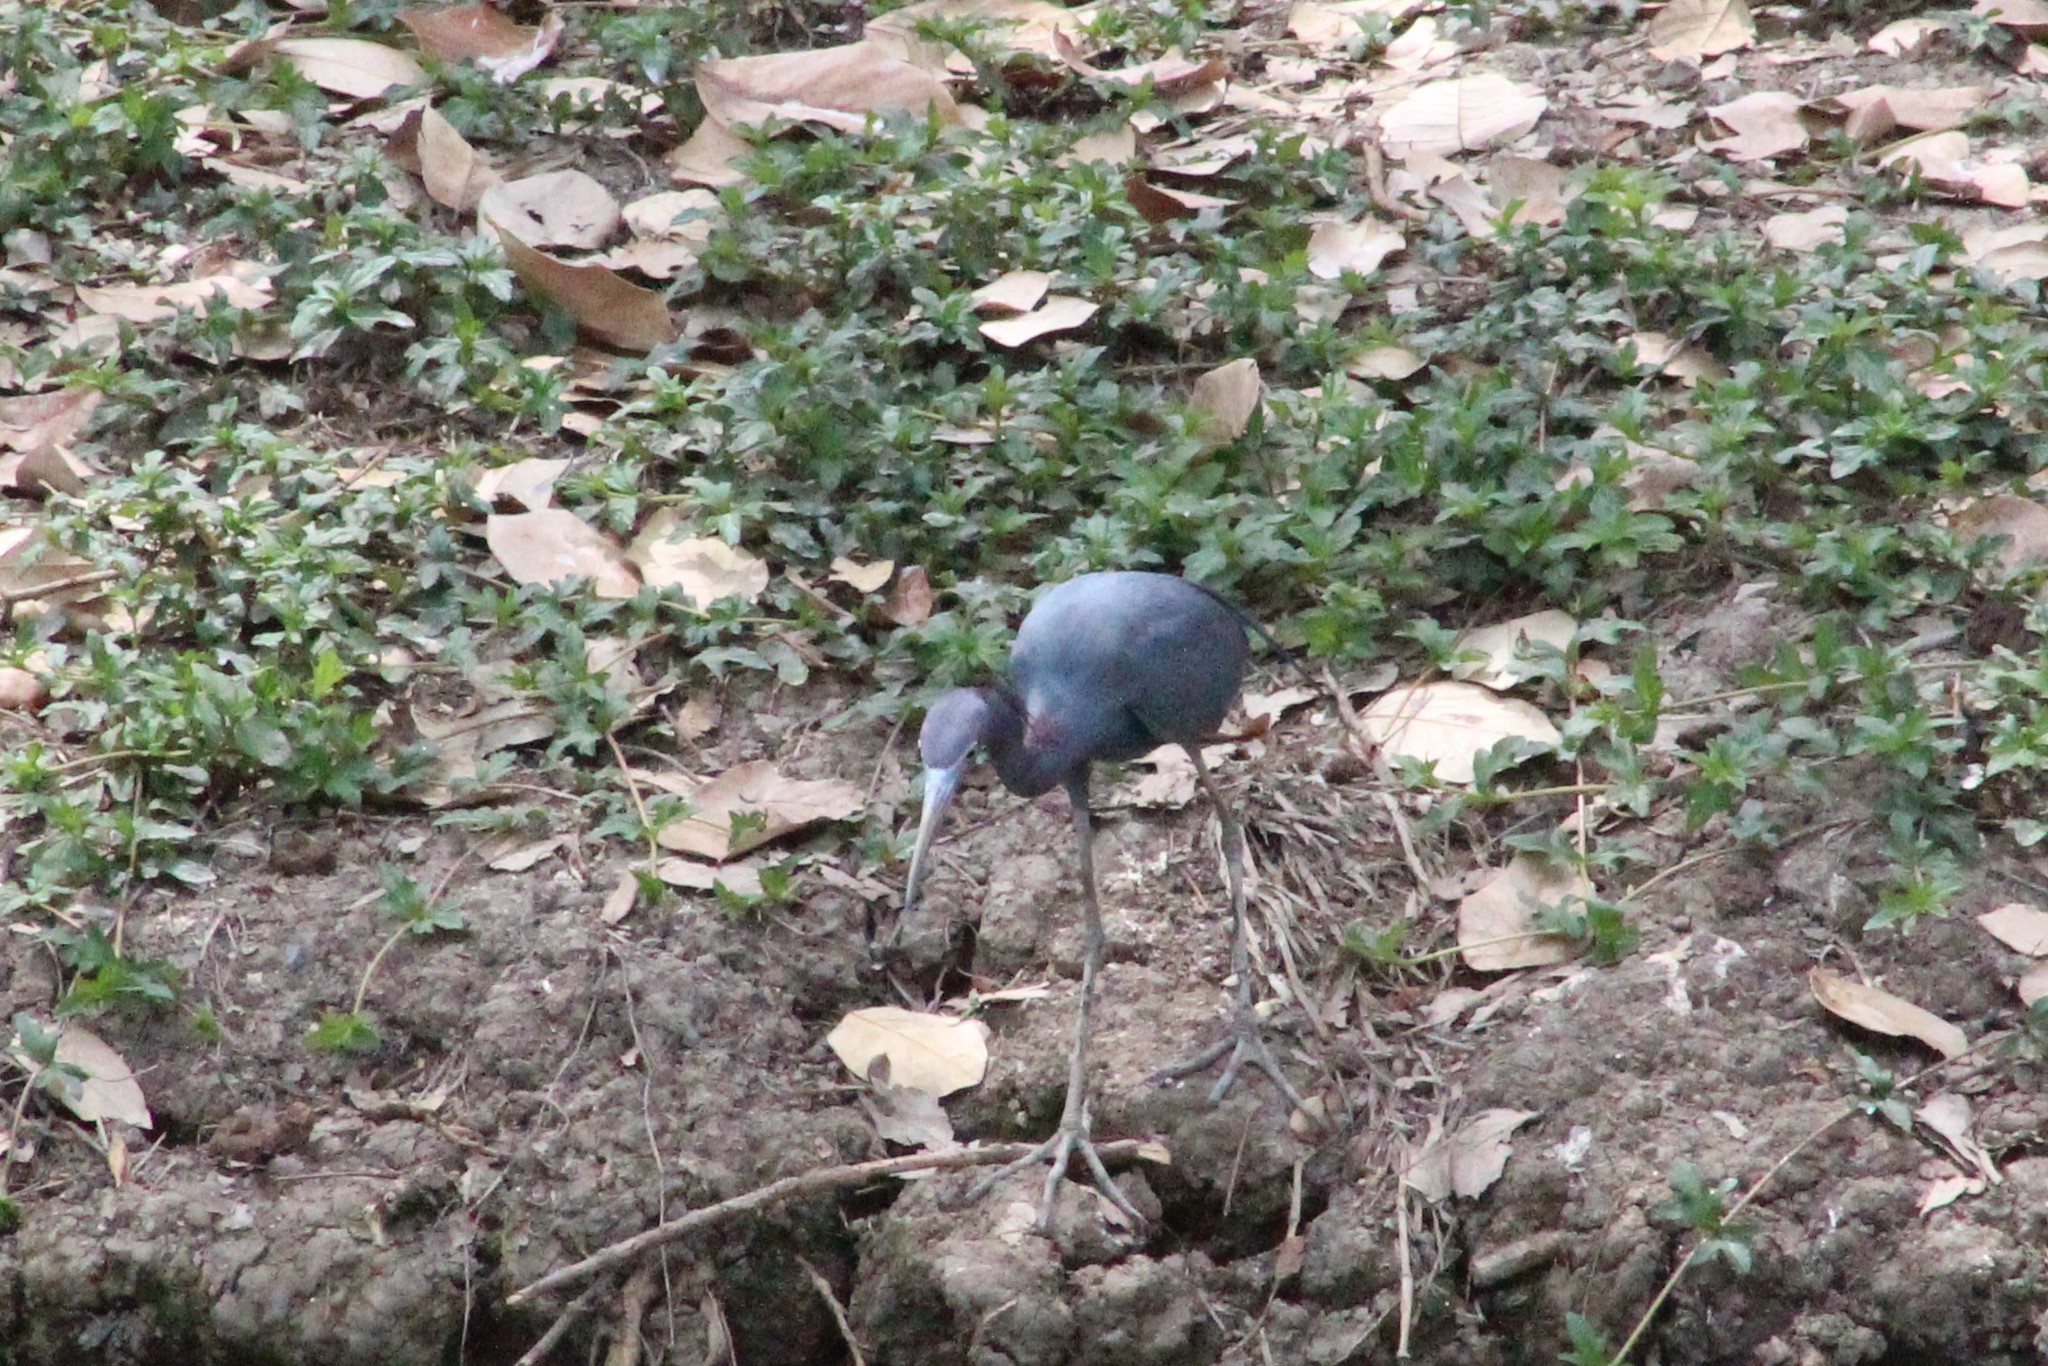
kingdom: Animalia
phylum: Chordata
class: Aves
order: Pelecaniformes
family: Ardeidae
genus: Egretta
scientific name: Egretta caerulea
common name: Little blue heron
